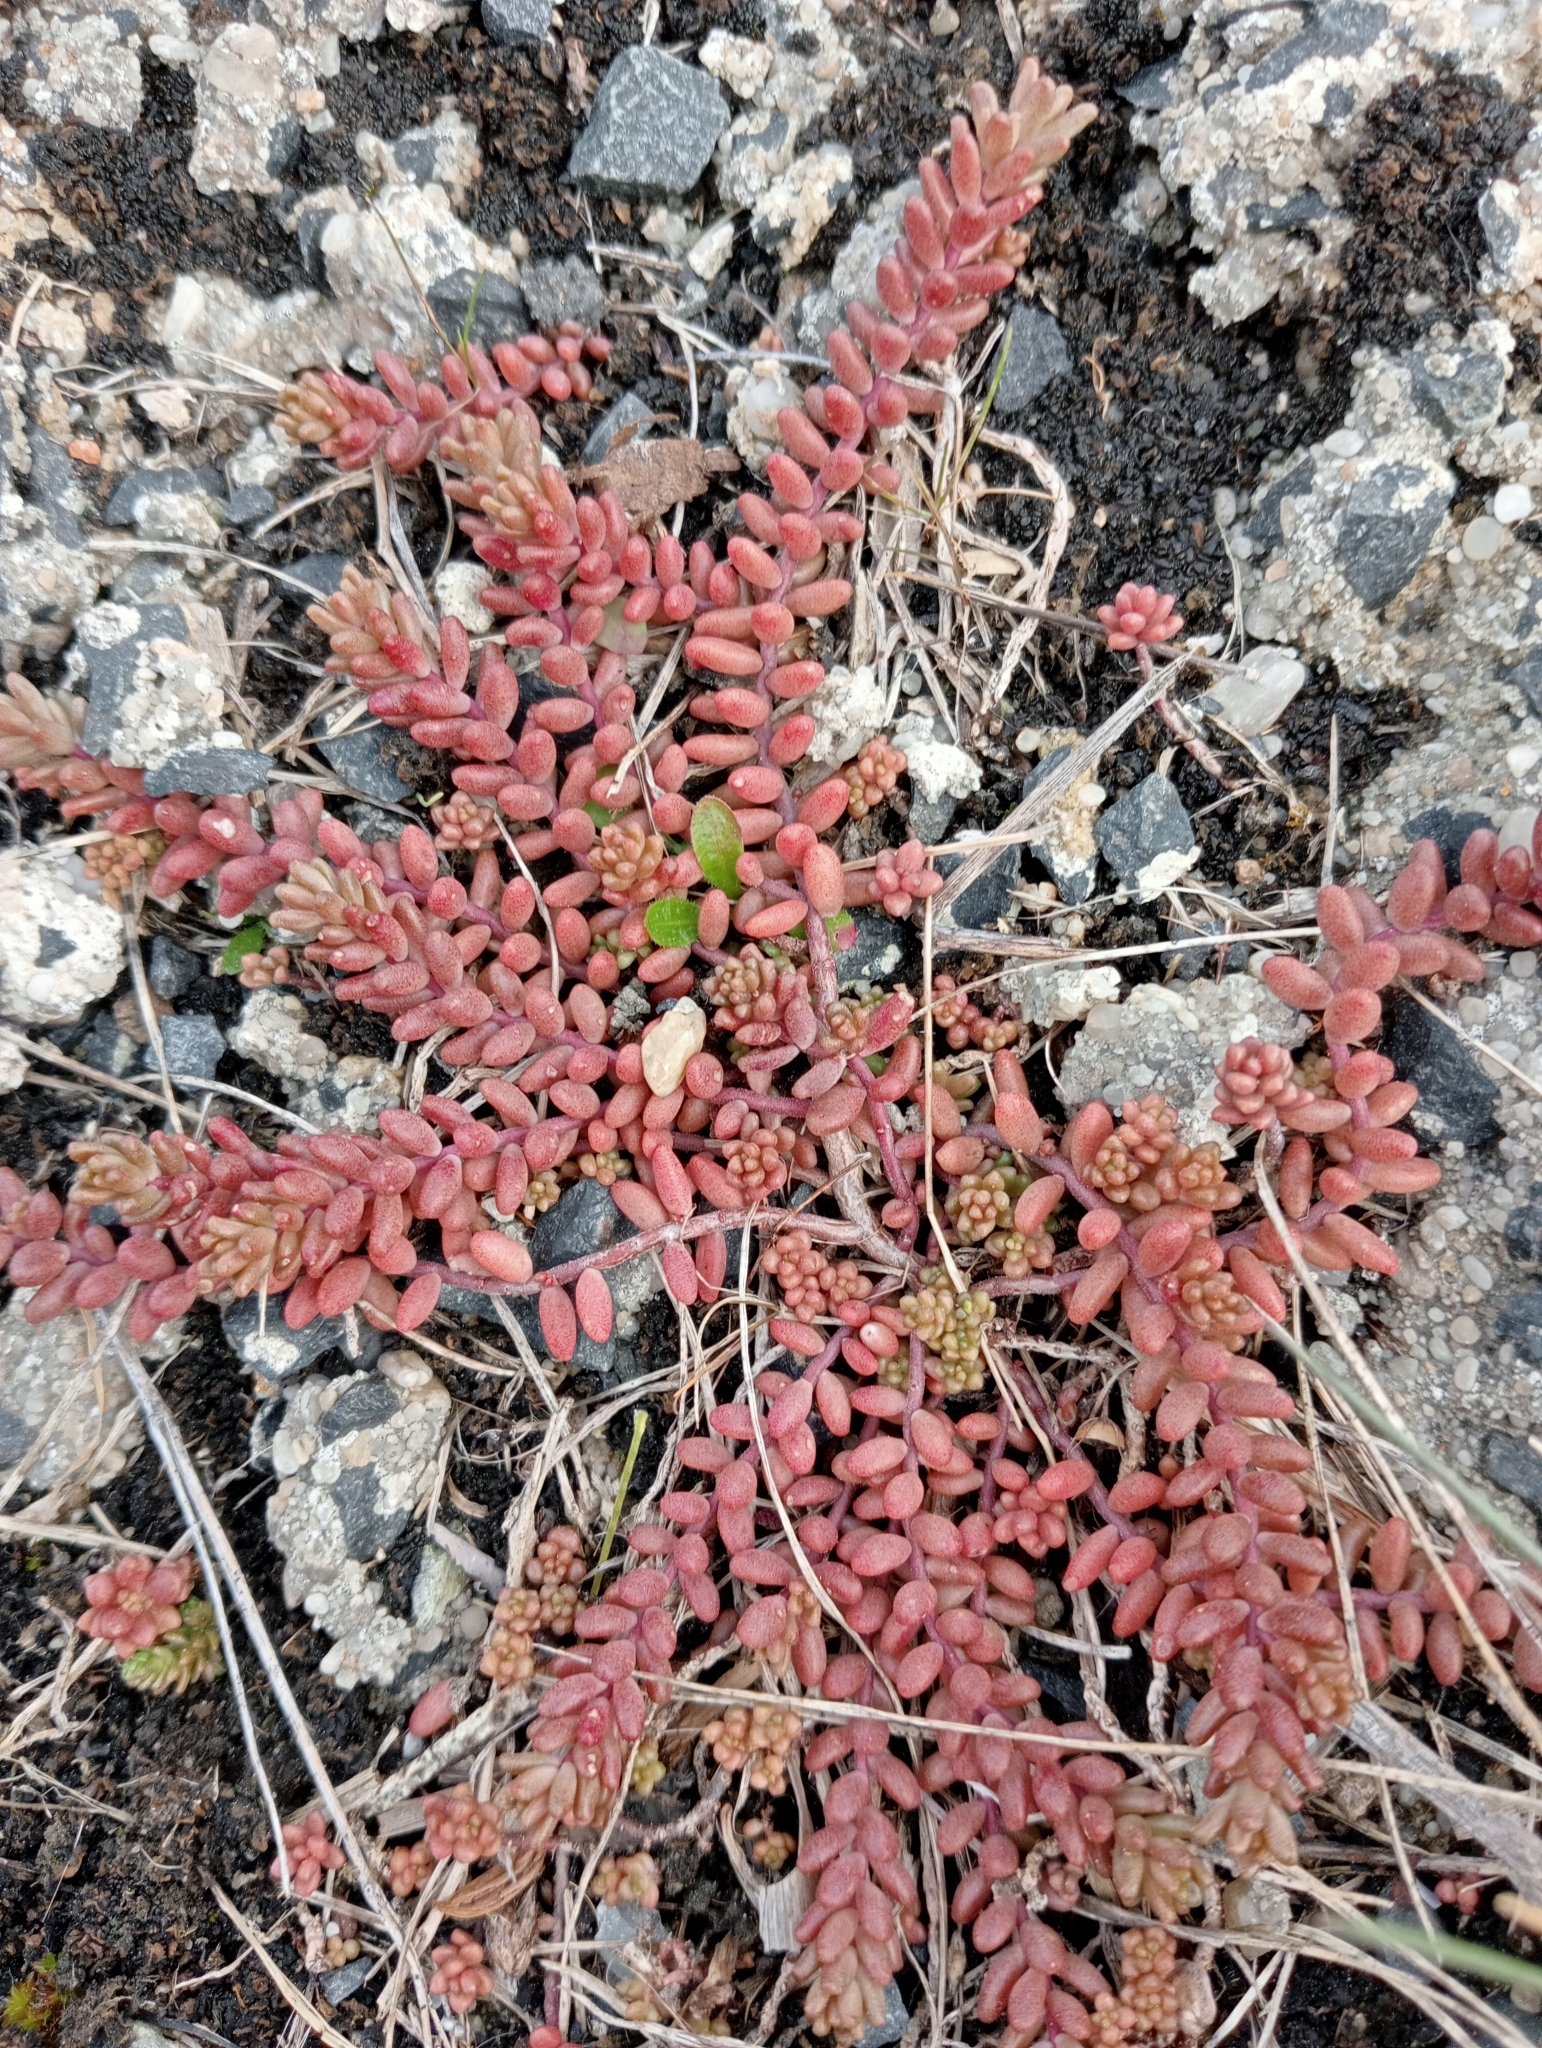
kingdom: Plantae
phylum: Tracheophyta
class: Magnoliopsida
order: Saxifragales
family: Crassulaceae
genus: Sedum
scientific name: Sedum album
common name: White stonecrop
